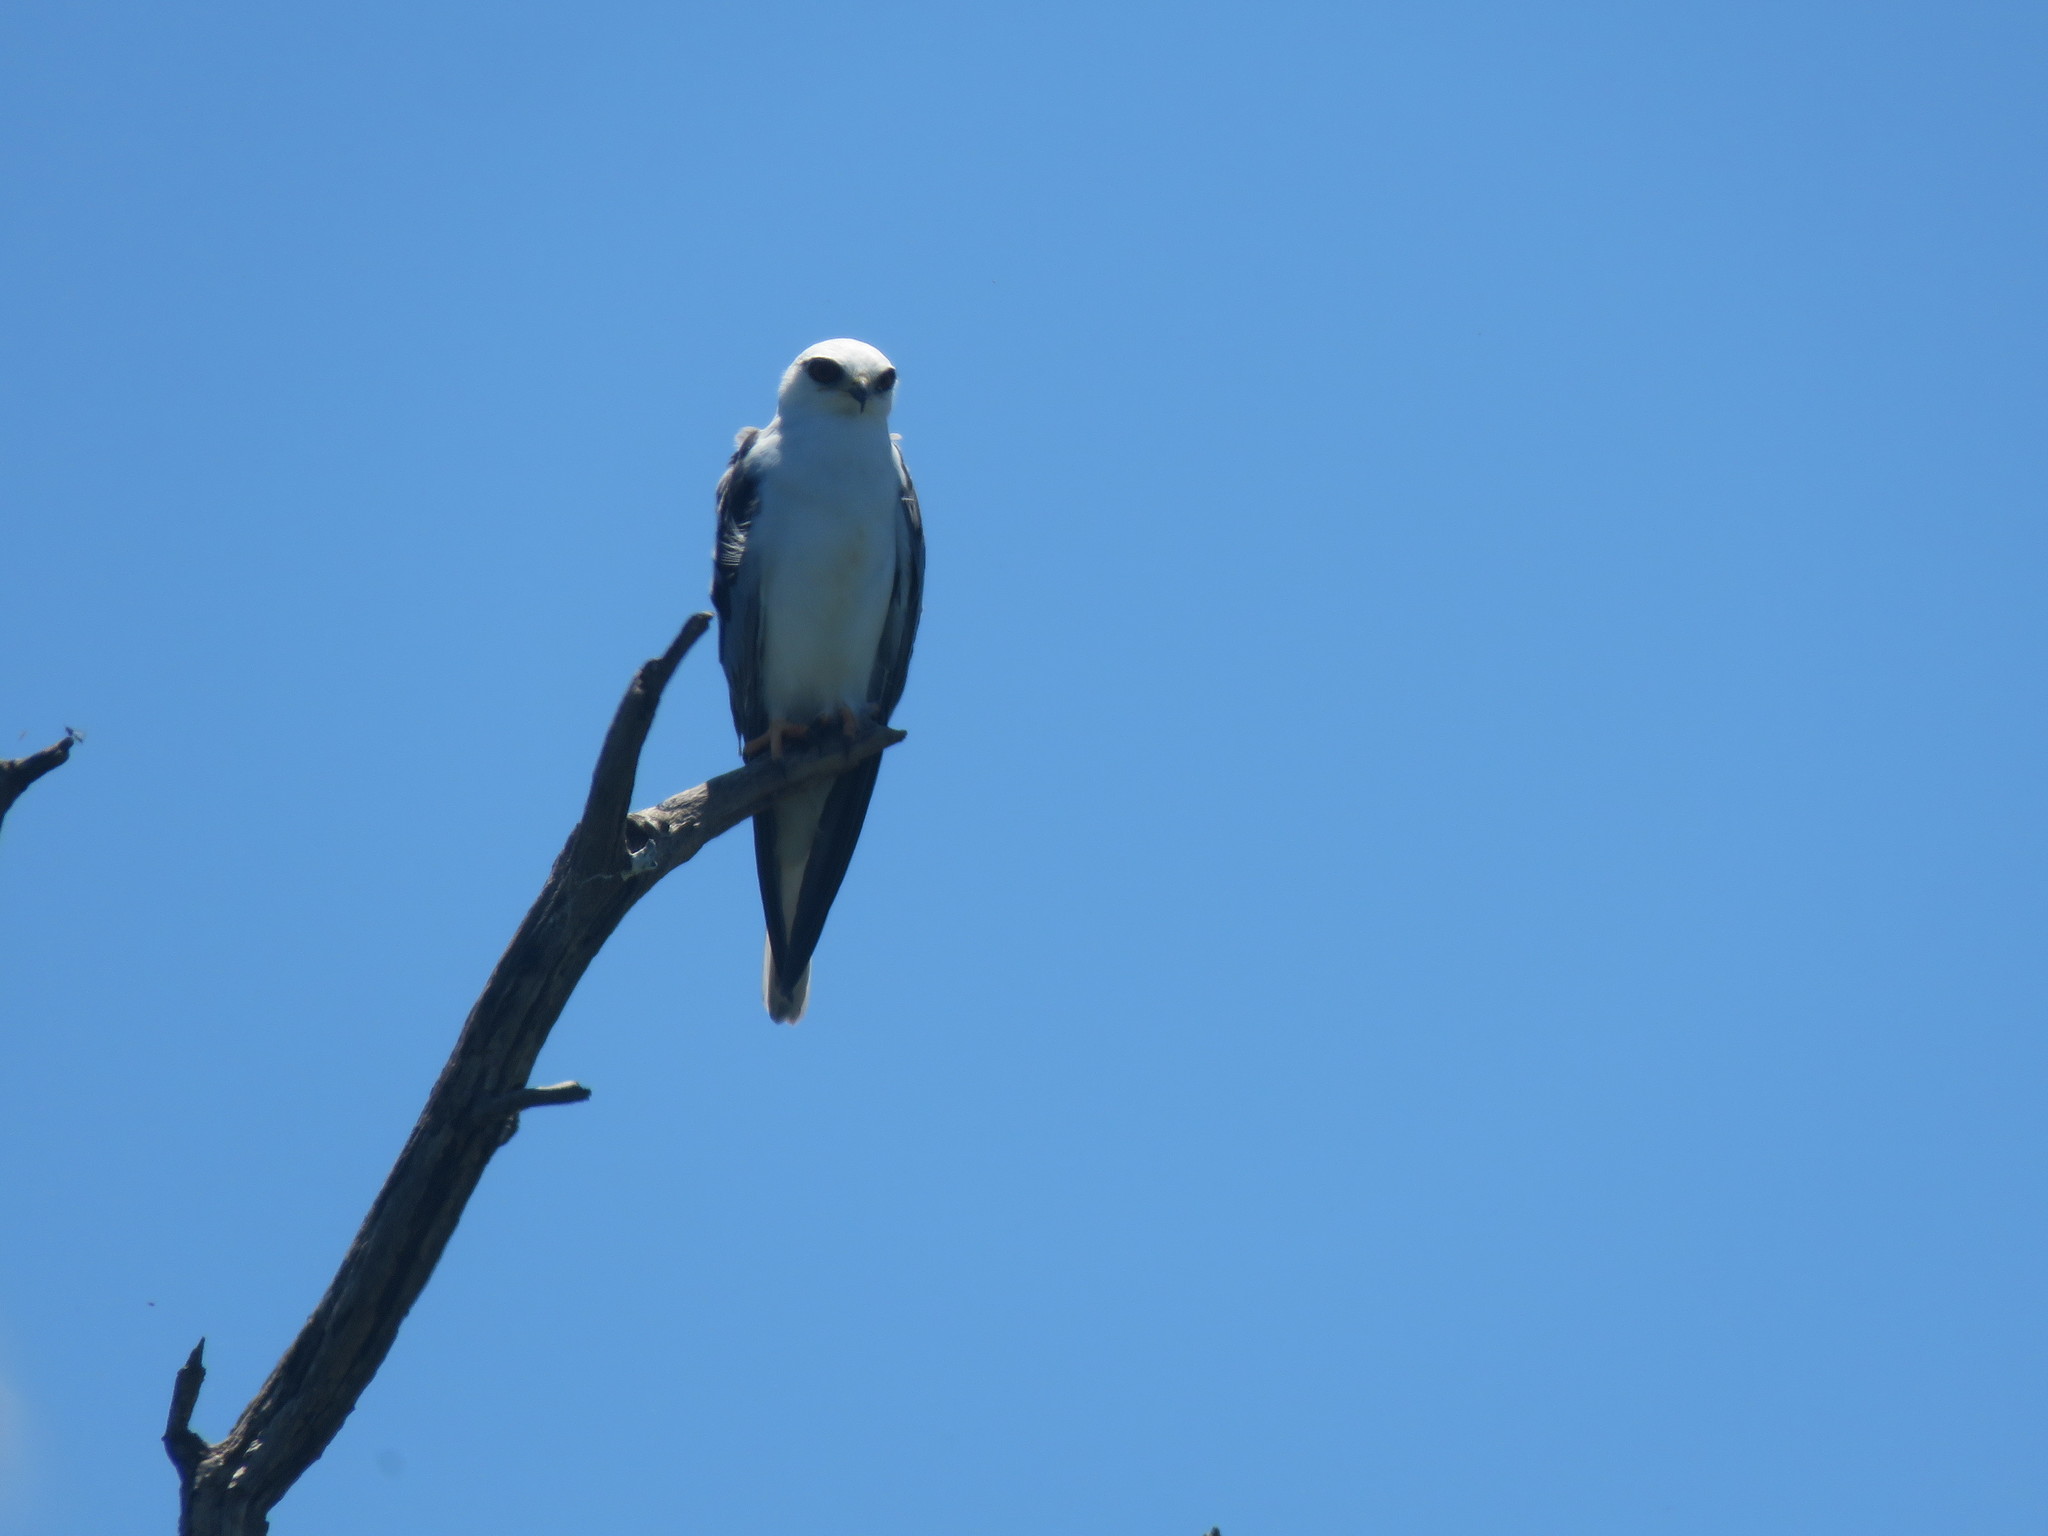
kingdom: Animalia
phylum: Chordata
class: Aves
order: Accipitriformes
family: Accipitridae
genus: Elanus
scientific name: Elanus leucurus
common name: White-tailed kite
